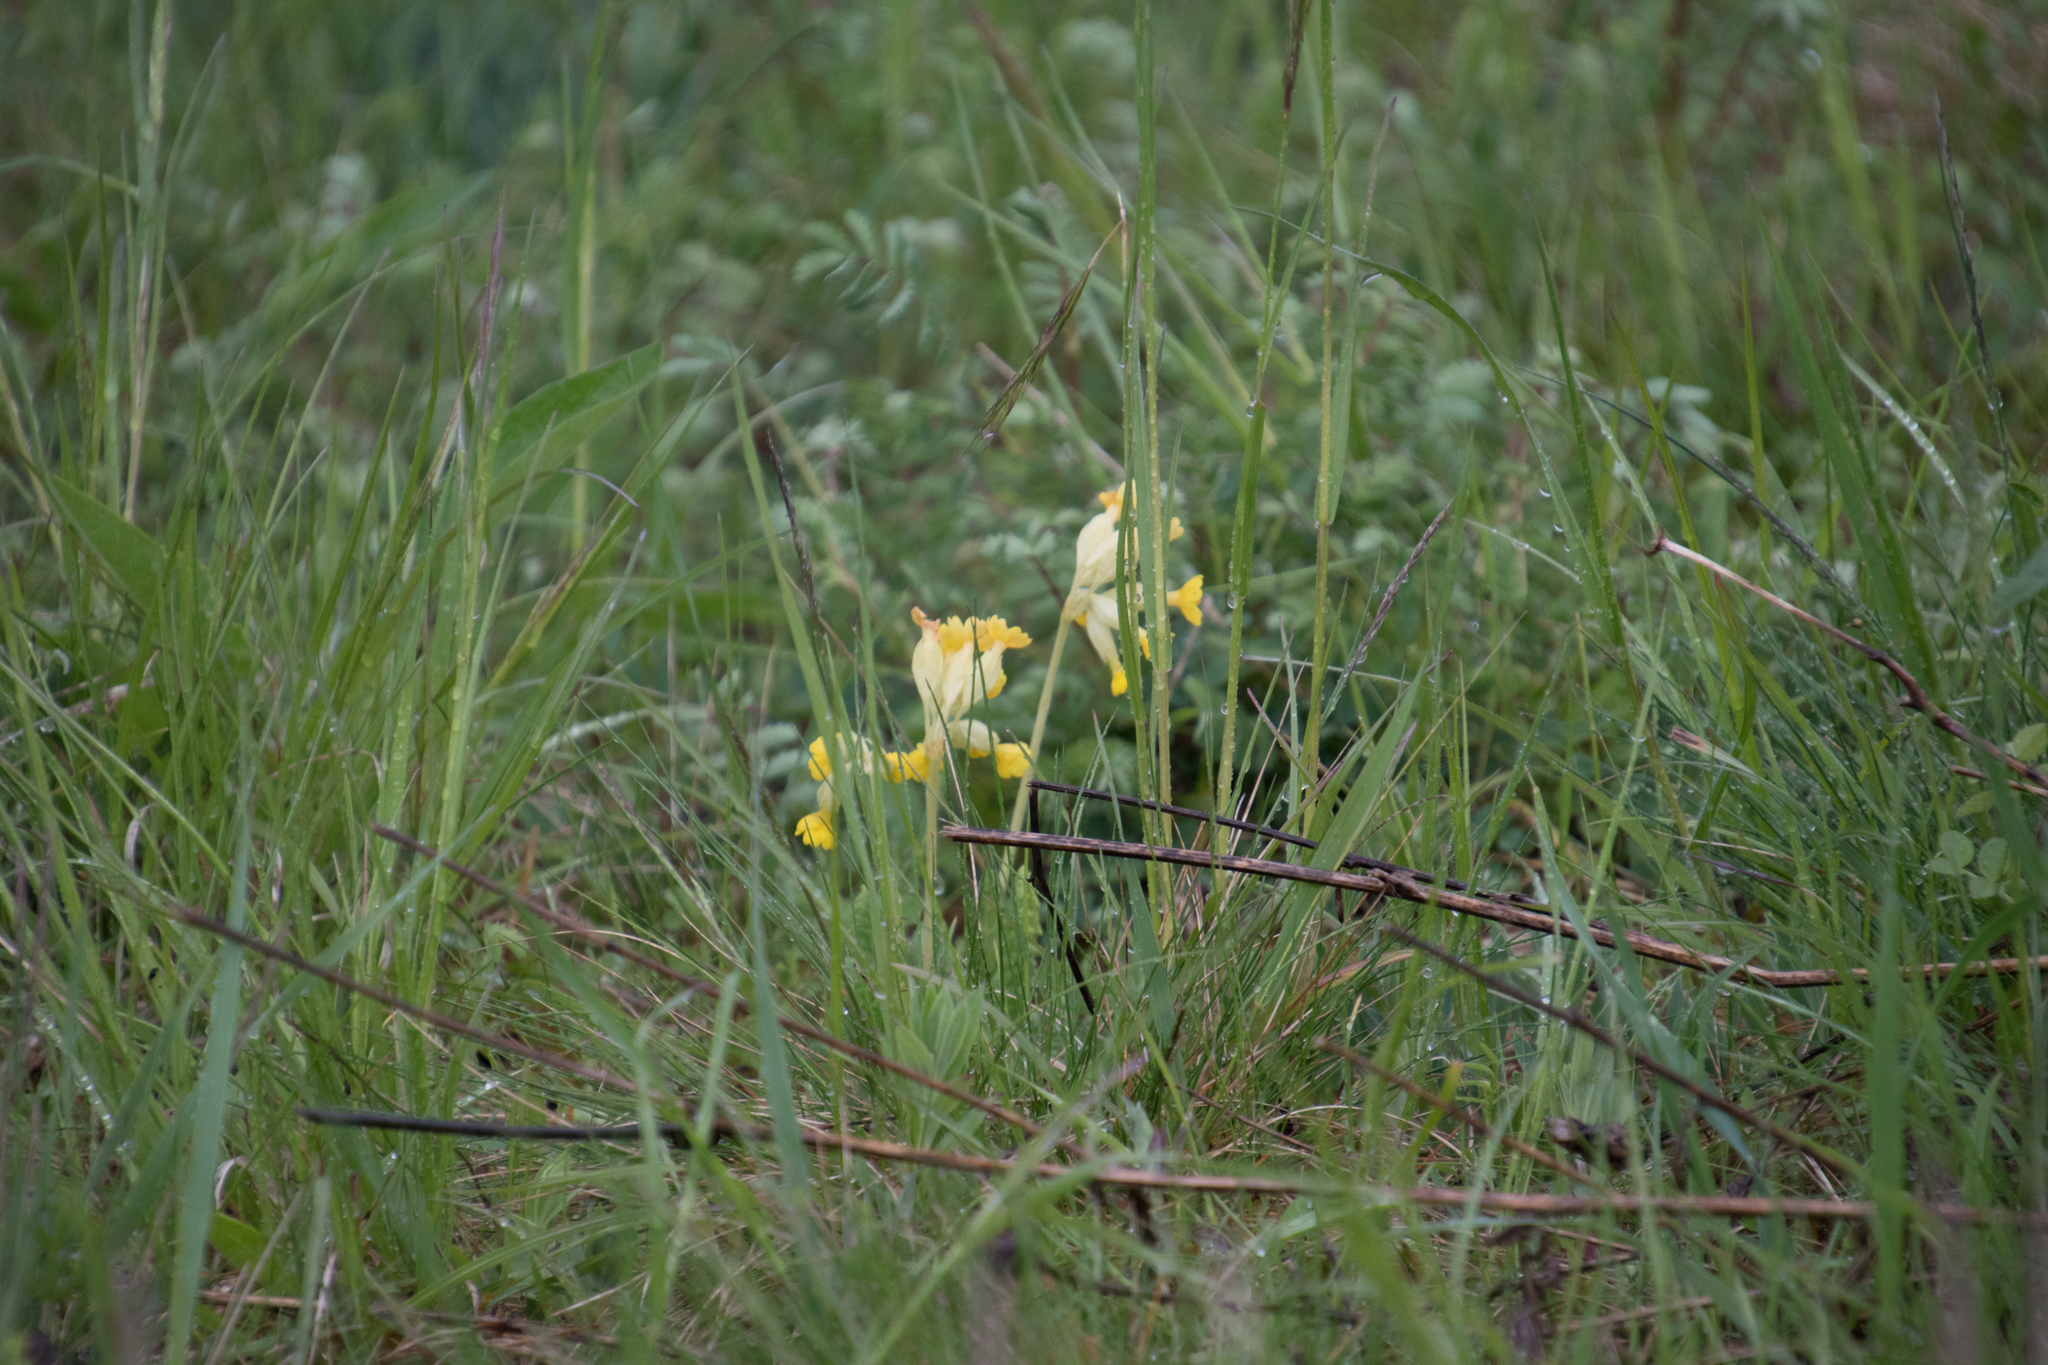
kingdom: Plantae
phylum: Tracheophyta
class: Magnoliopsida
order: Ericales
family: Primulaceae
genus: Primula
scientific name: Primula veris
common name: Cowslip
